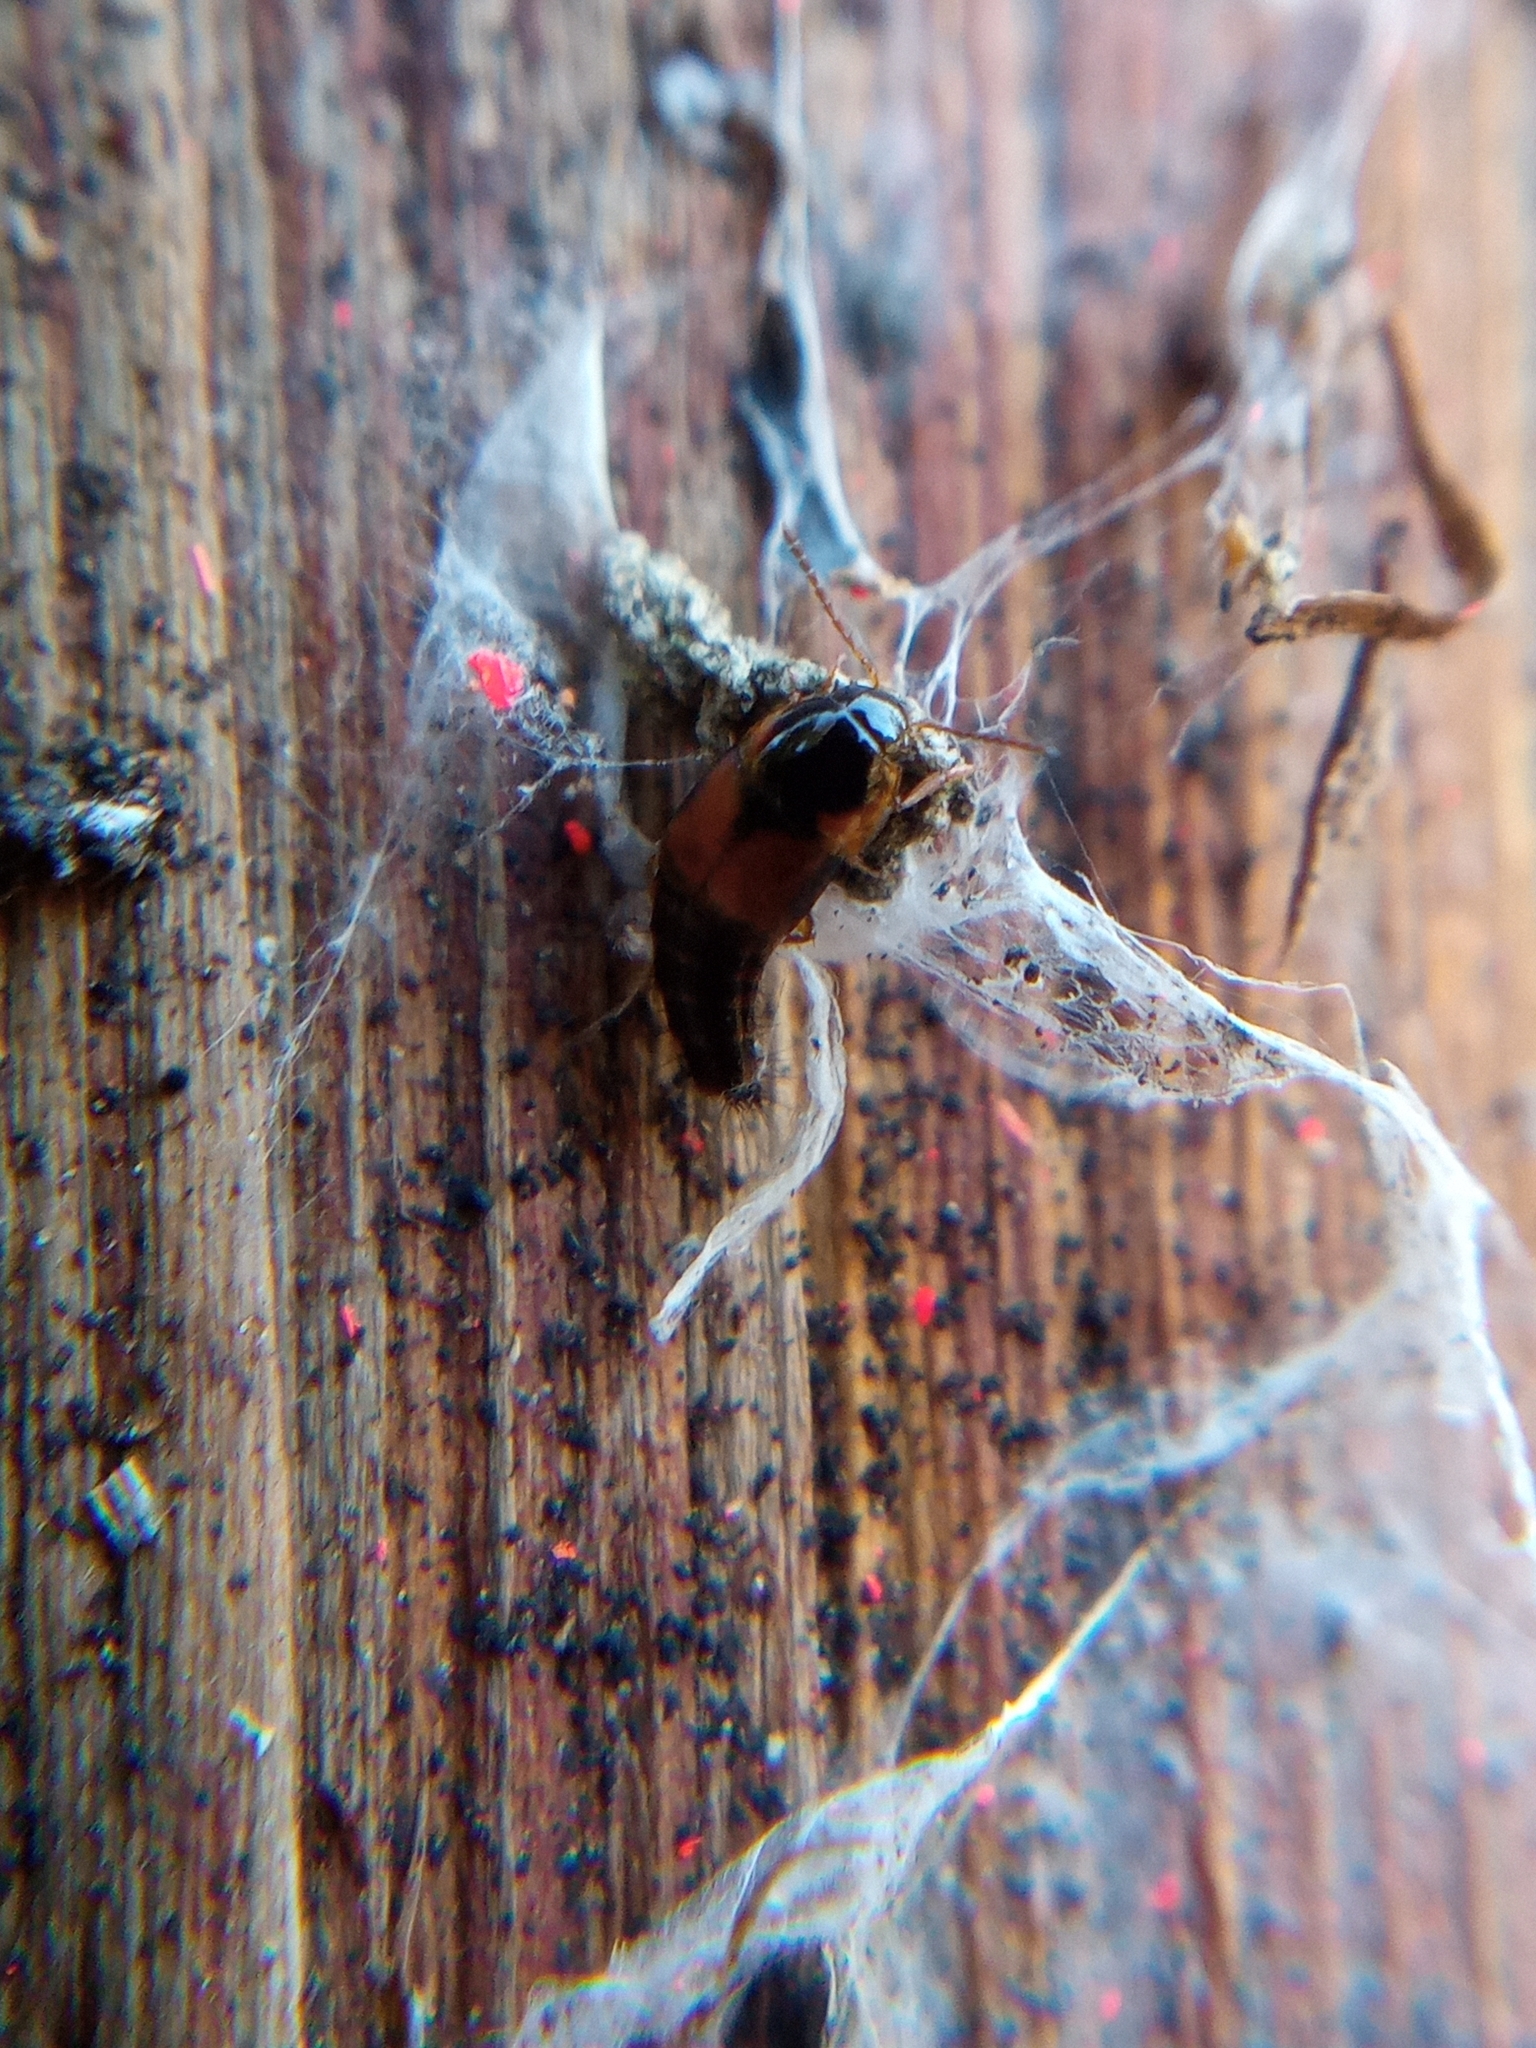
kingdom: Animalia
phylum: Arthropoda
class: Insecta
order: Coleoptera
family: Staphylinidae
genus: Tachyporus
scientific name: Tachyporus hypnorum
